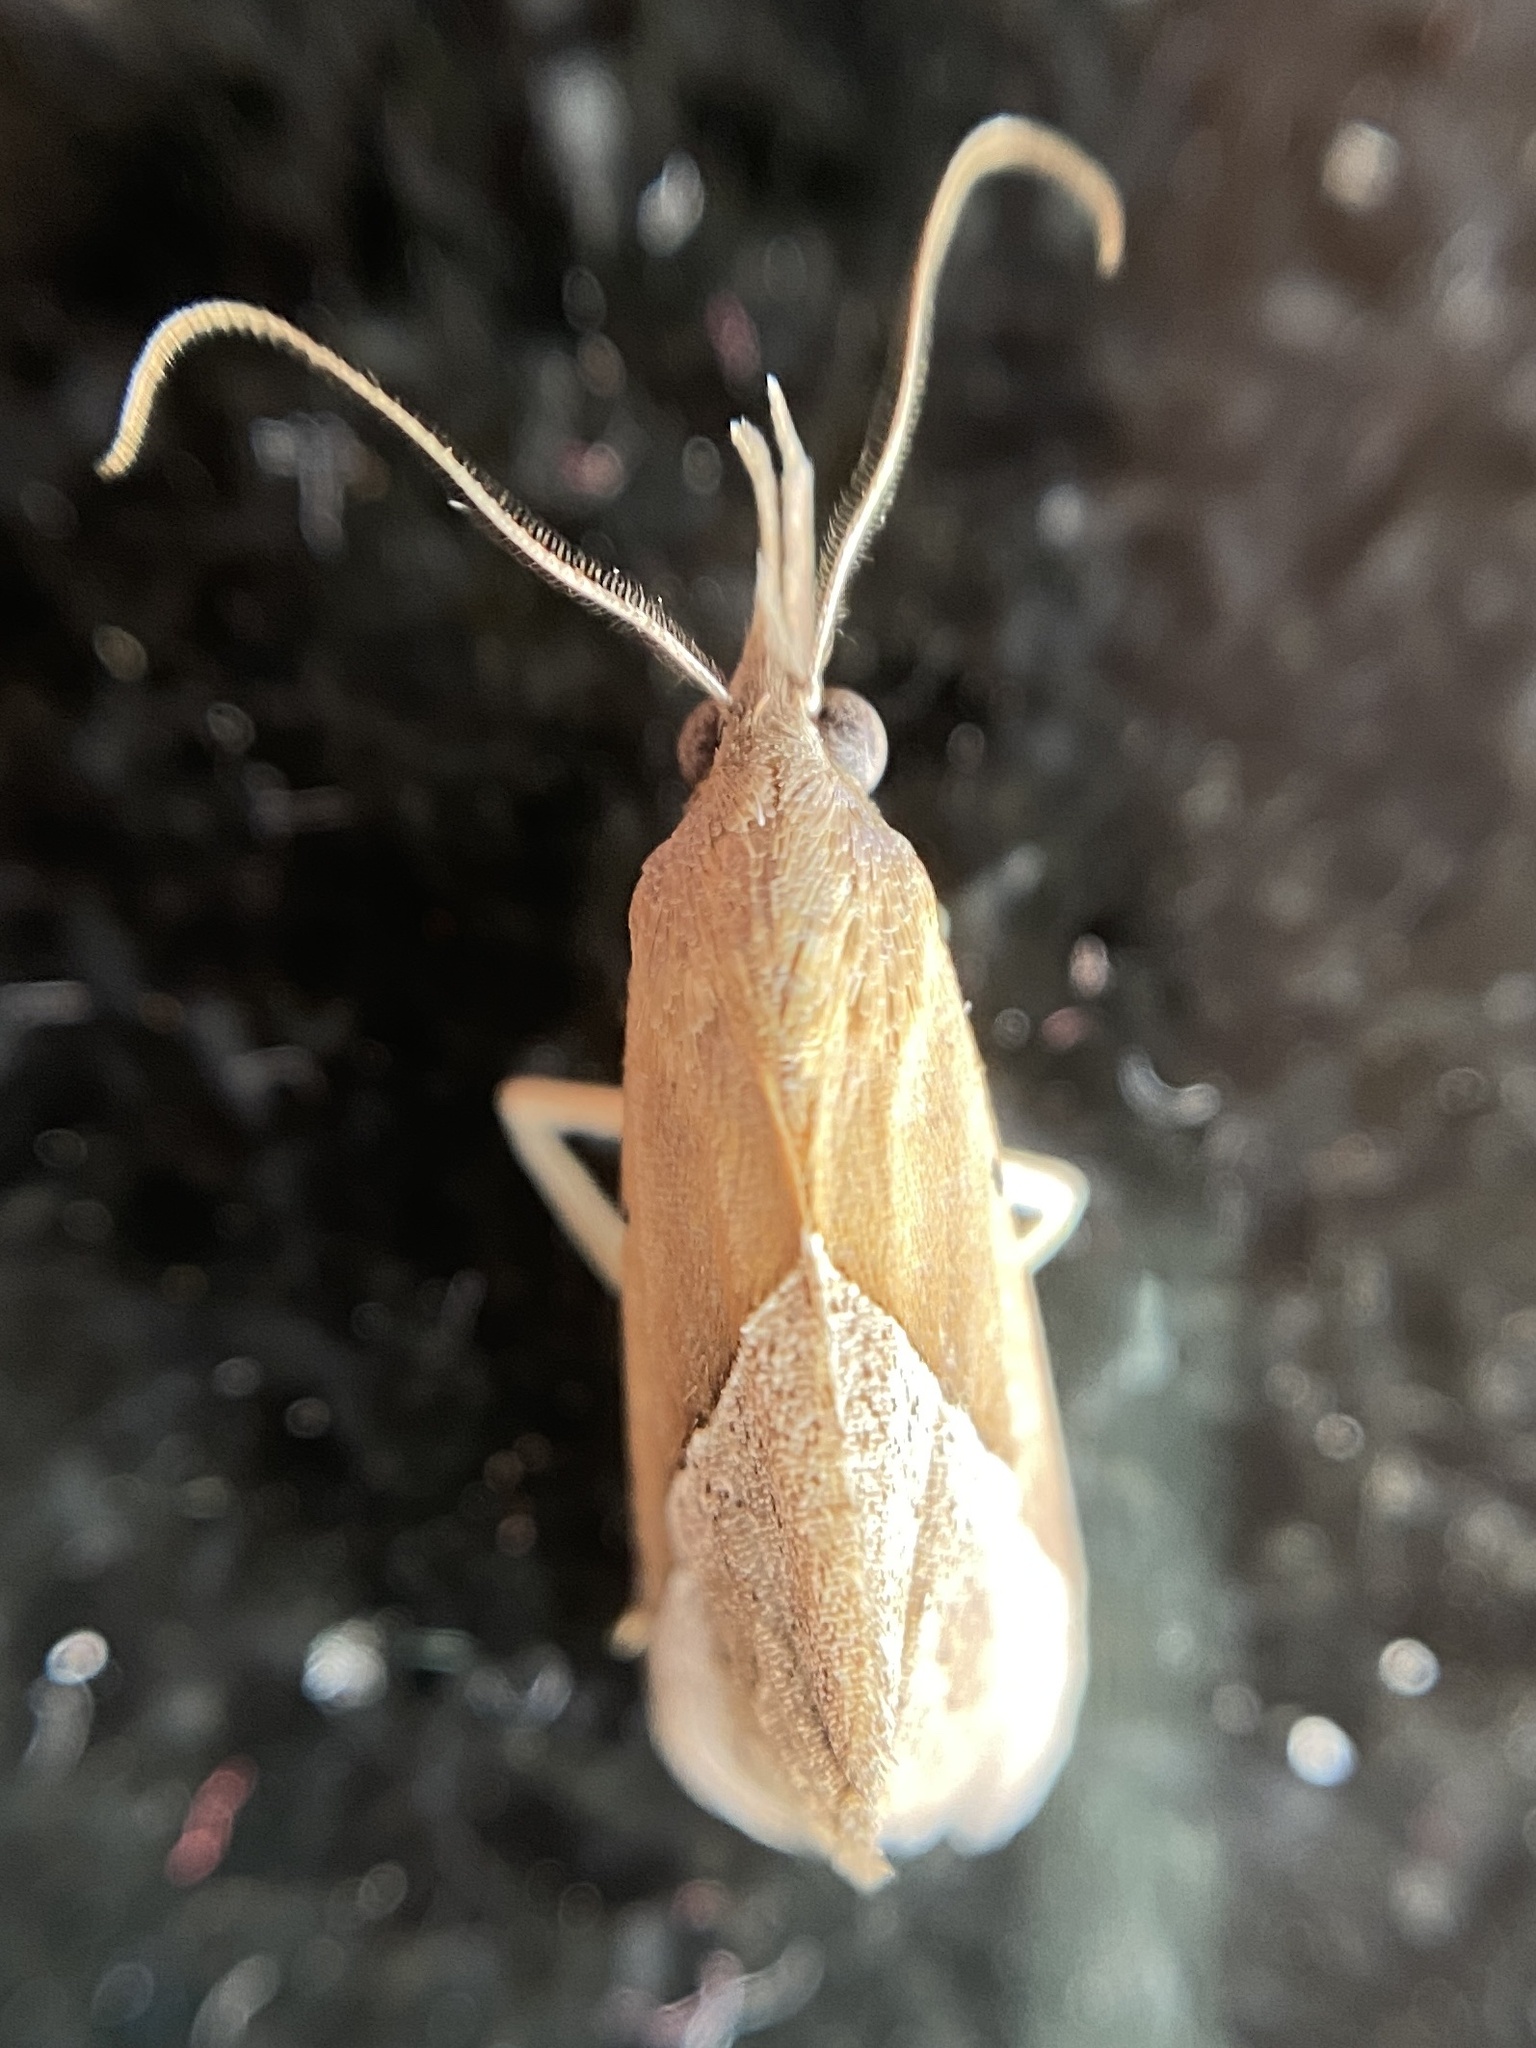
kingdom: Animalia
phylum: Arthropoda
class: Insecta
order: Lepidoptera
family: Erebidae
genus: Hypena
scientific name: Hypena lividalis
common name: Chevron snout
